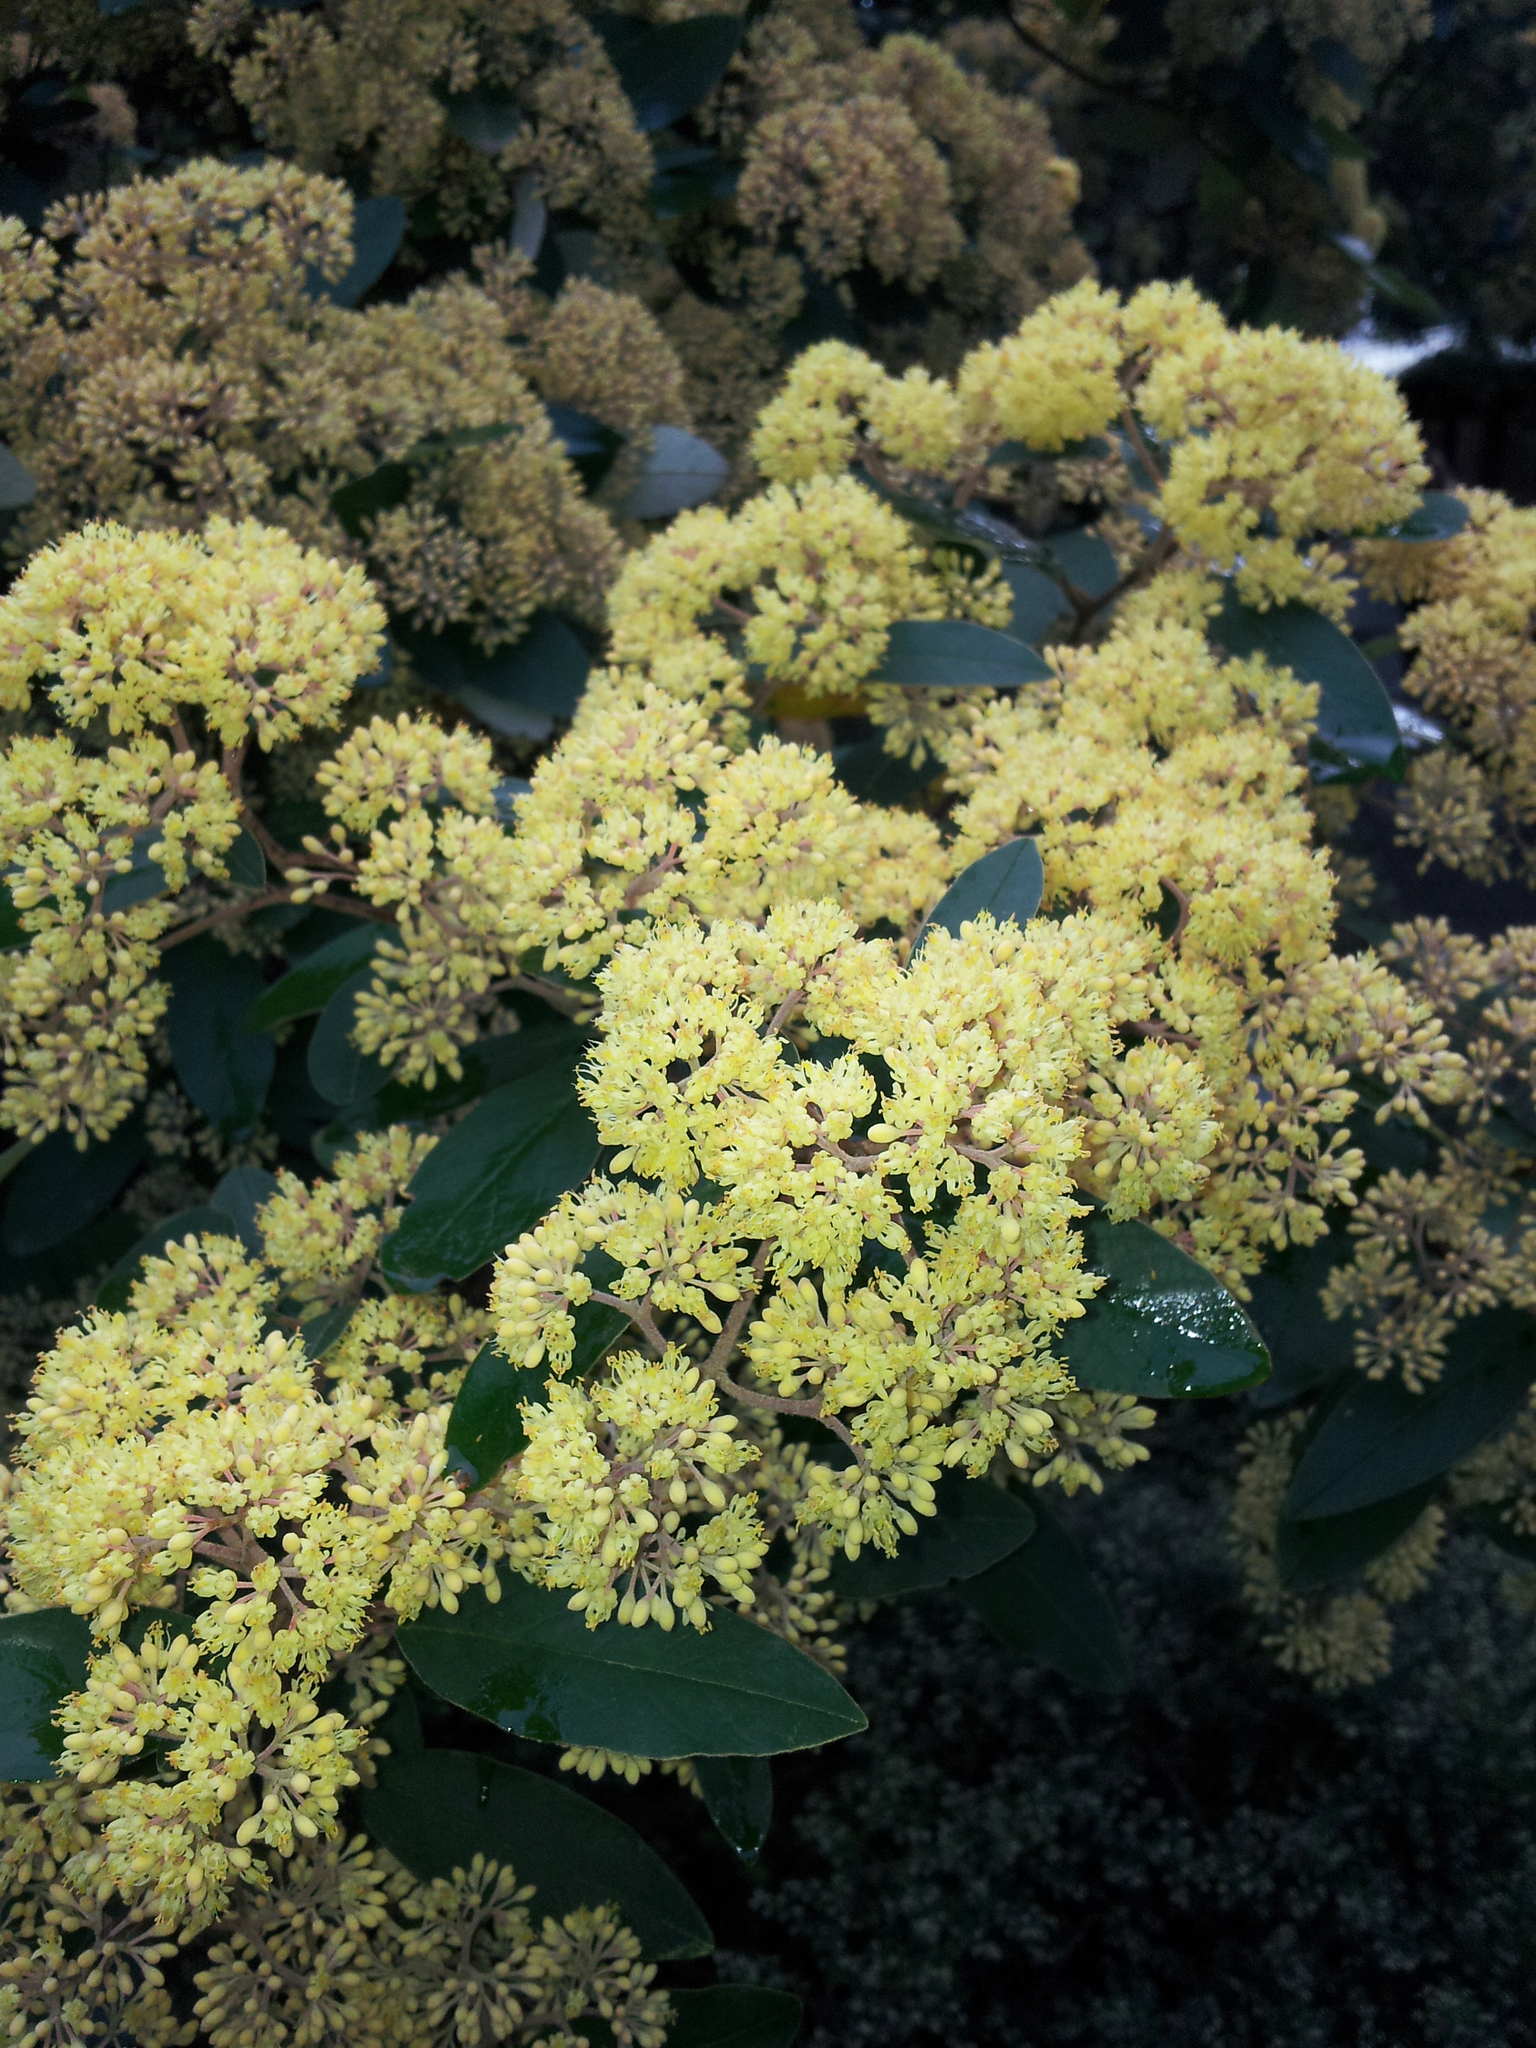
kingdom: Plantae
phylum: Tracheophyta
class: Magnoliopsida
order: Rosales
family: Rhamnaceae
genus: Pomaderris
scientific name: Pomaderris kumeraho
